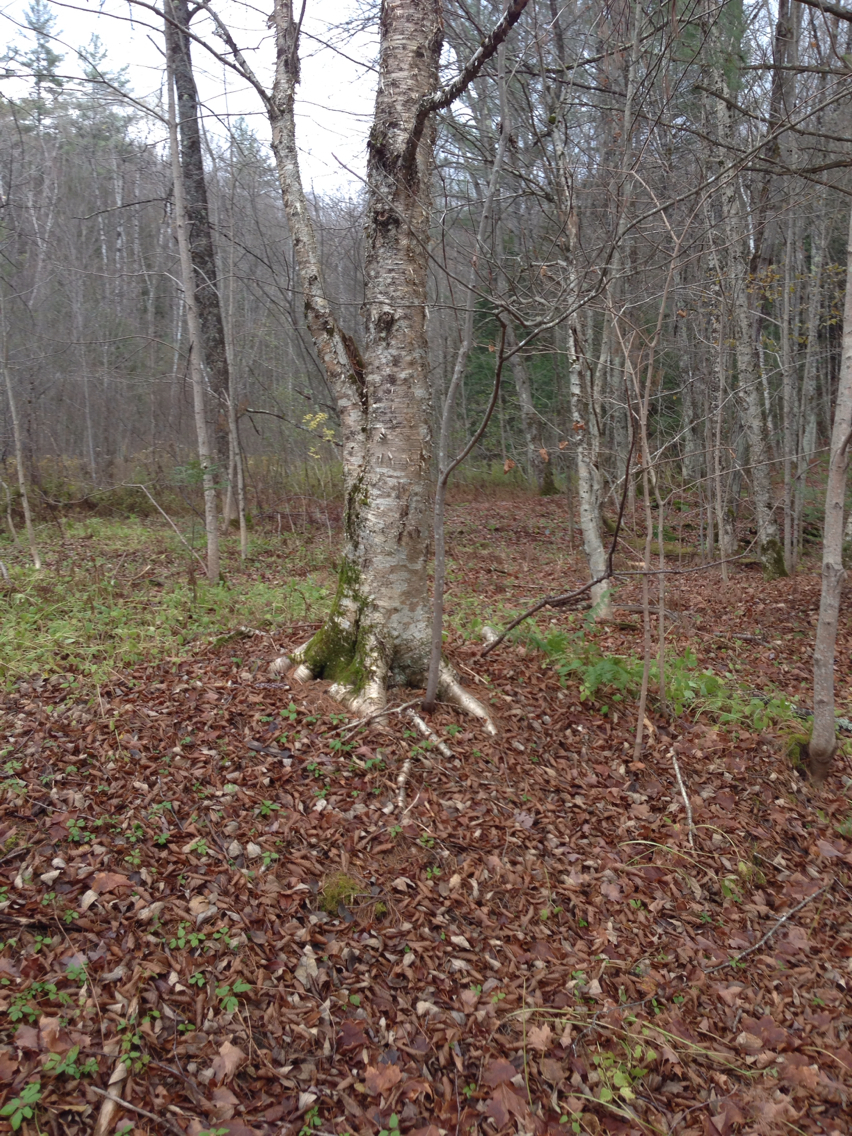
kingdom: Plantae
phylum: Tracheophyta
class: Magnoliopsida
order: Fagales
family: Betulaceae
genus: Betula
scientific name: Betula alleghaniensis
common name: Yellow birch
